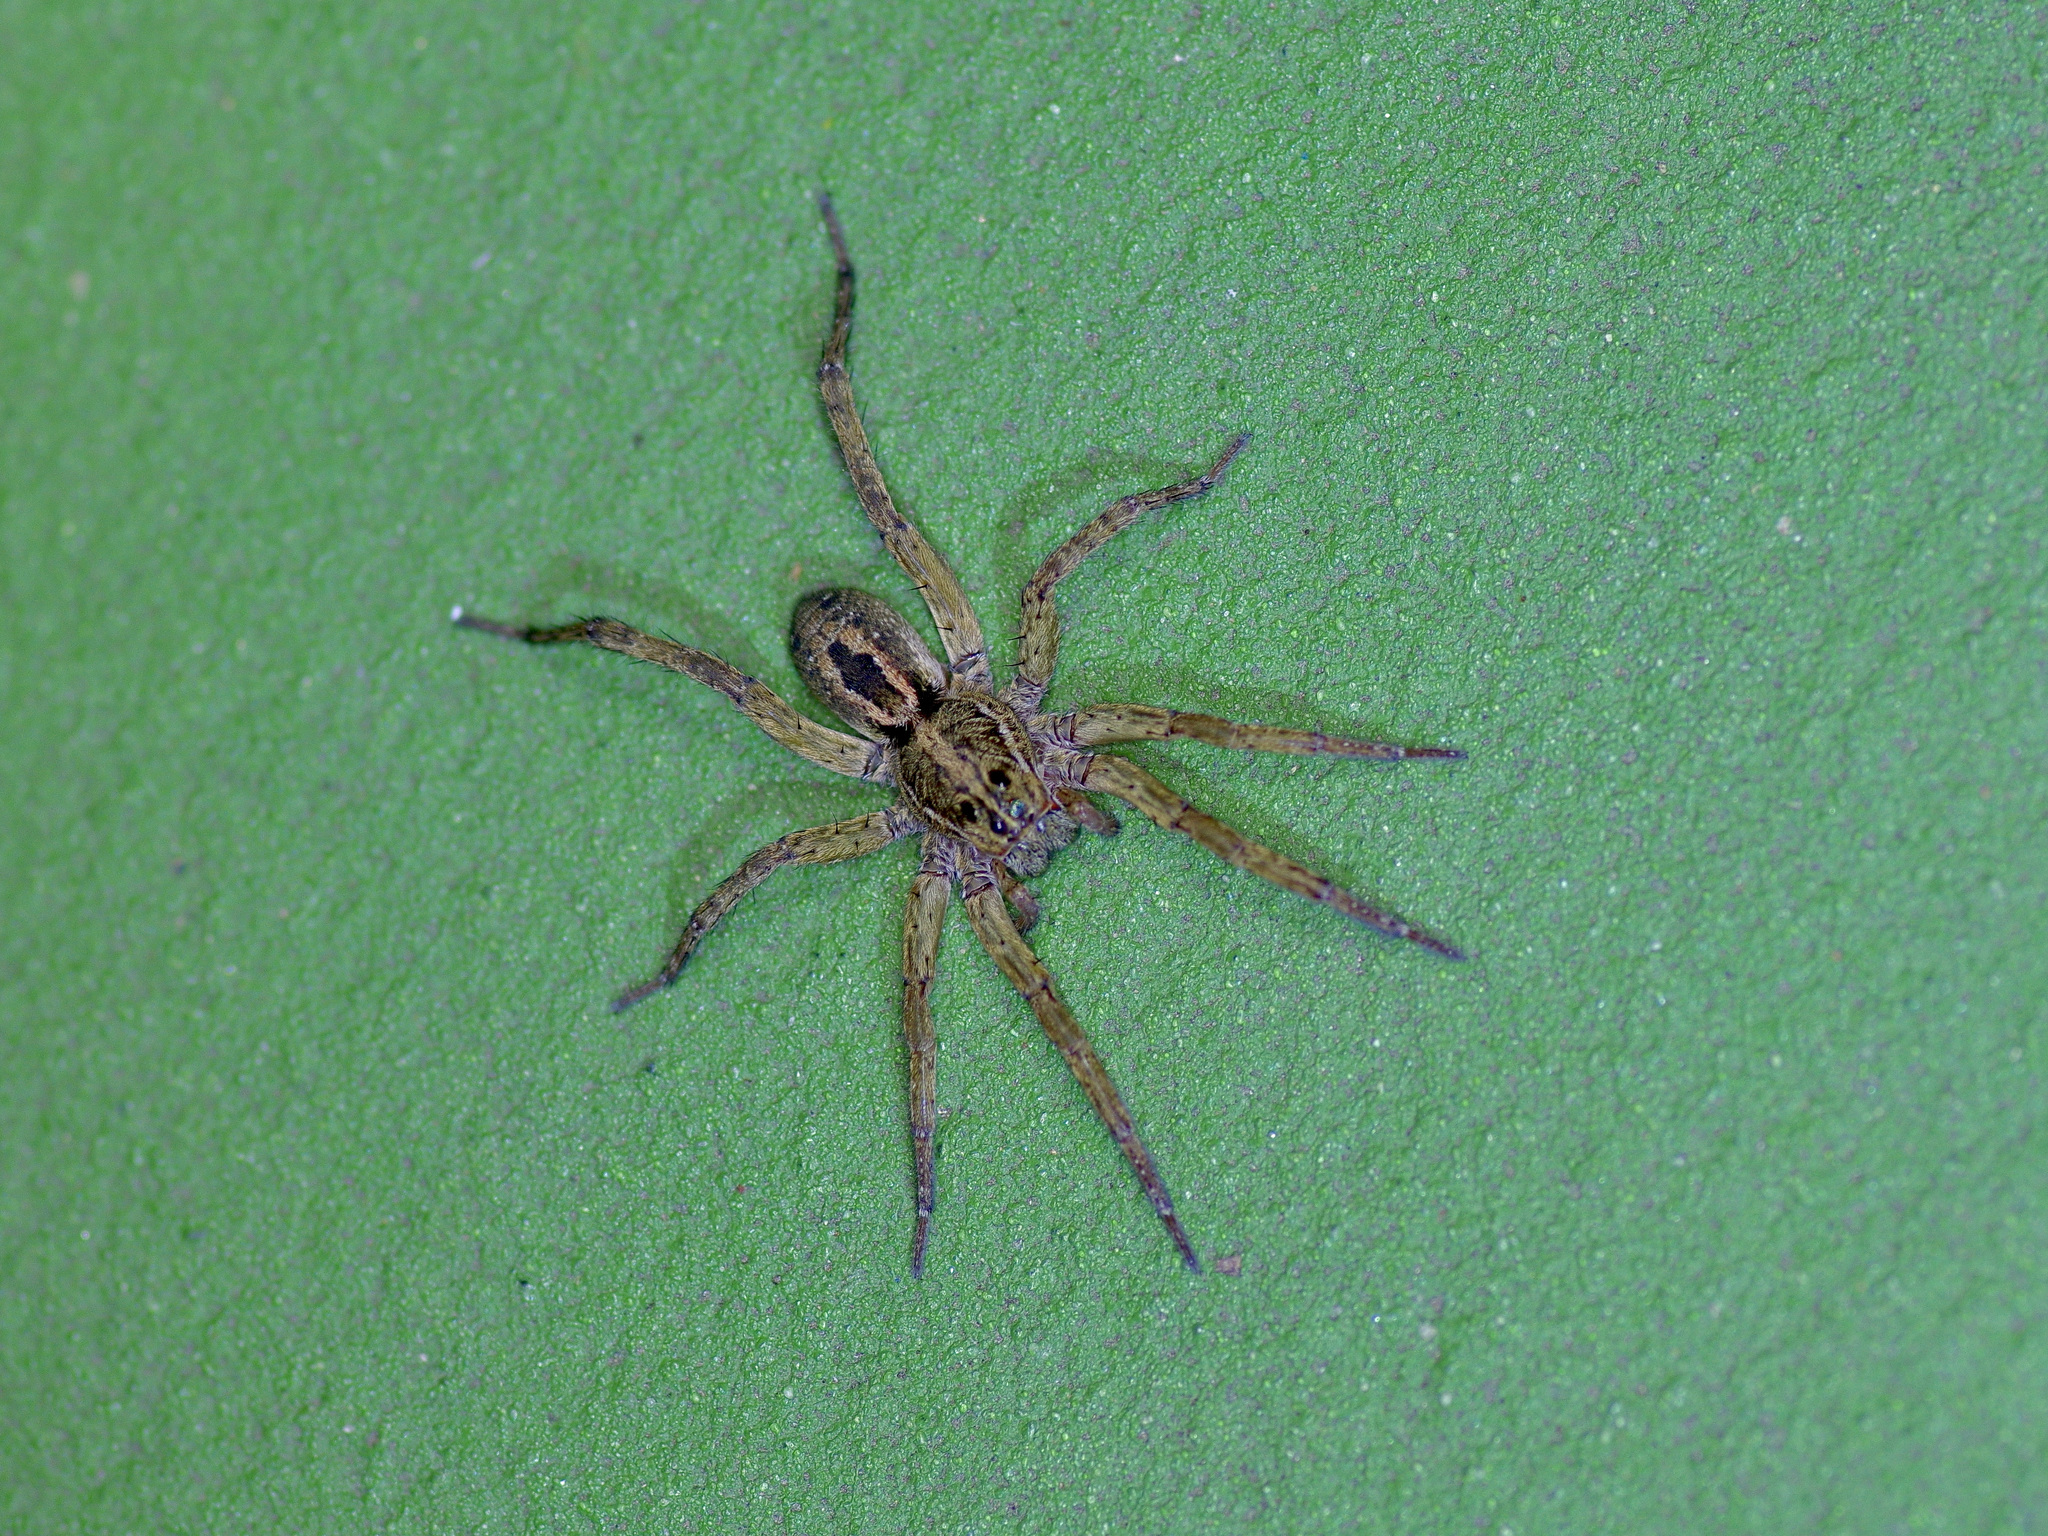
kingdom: Animalia
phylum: Arthropoda
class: Arachnida
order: Araneae
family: Lycosidae
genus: Tigrosa
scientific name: Tigrosa annexa
